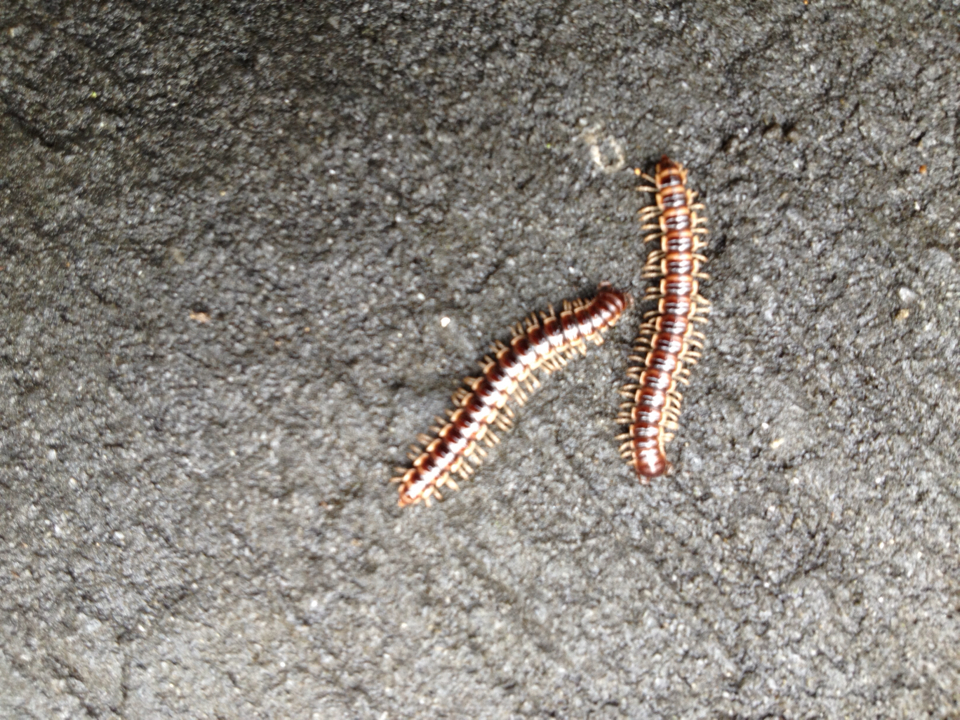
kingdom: Animalia
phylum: Arthropoda
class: Diplopoda
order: Polydesmida
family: Paradoxosomatidae
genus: Oxidus
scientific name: Oxidus gracilis
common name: Greenhouse millipede
